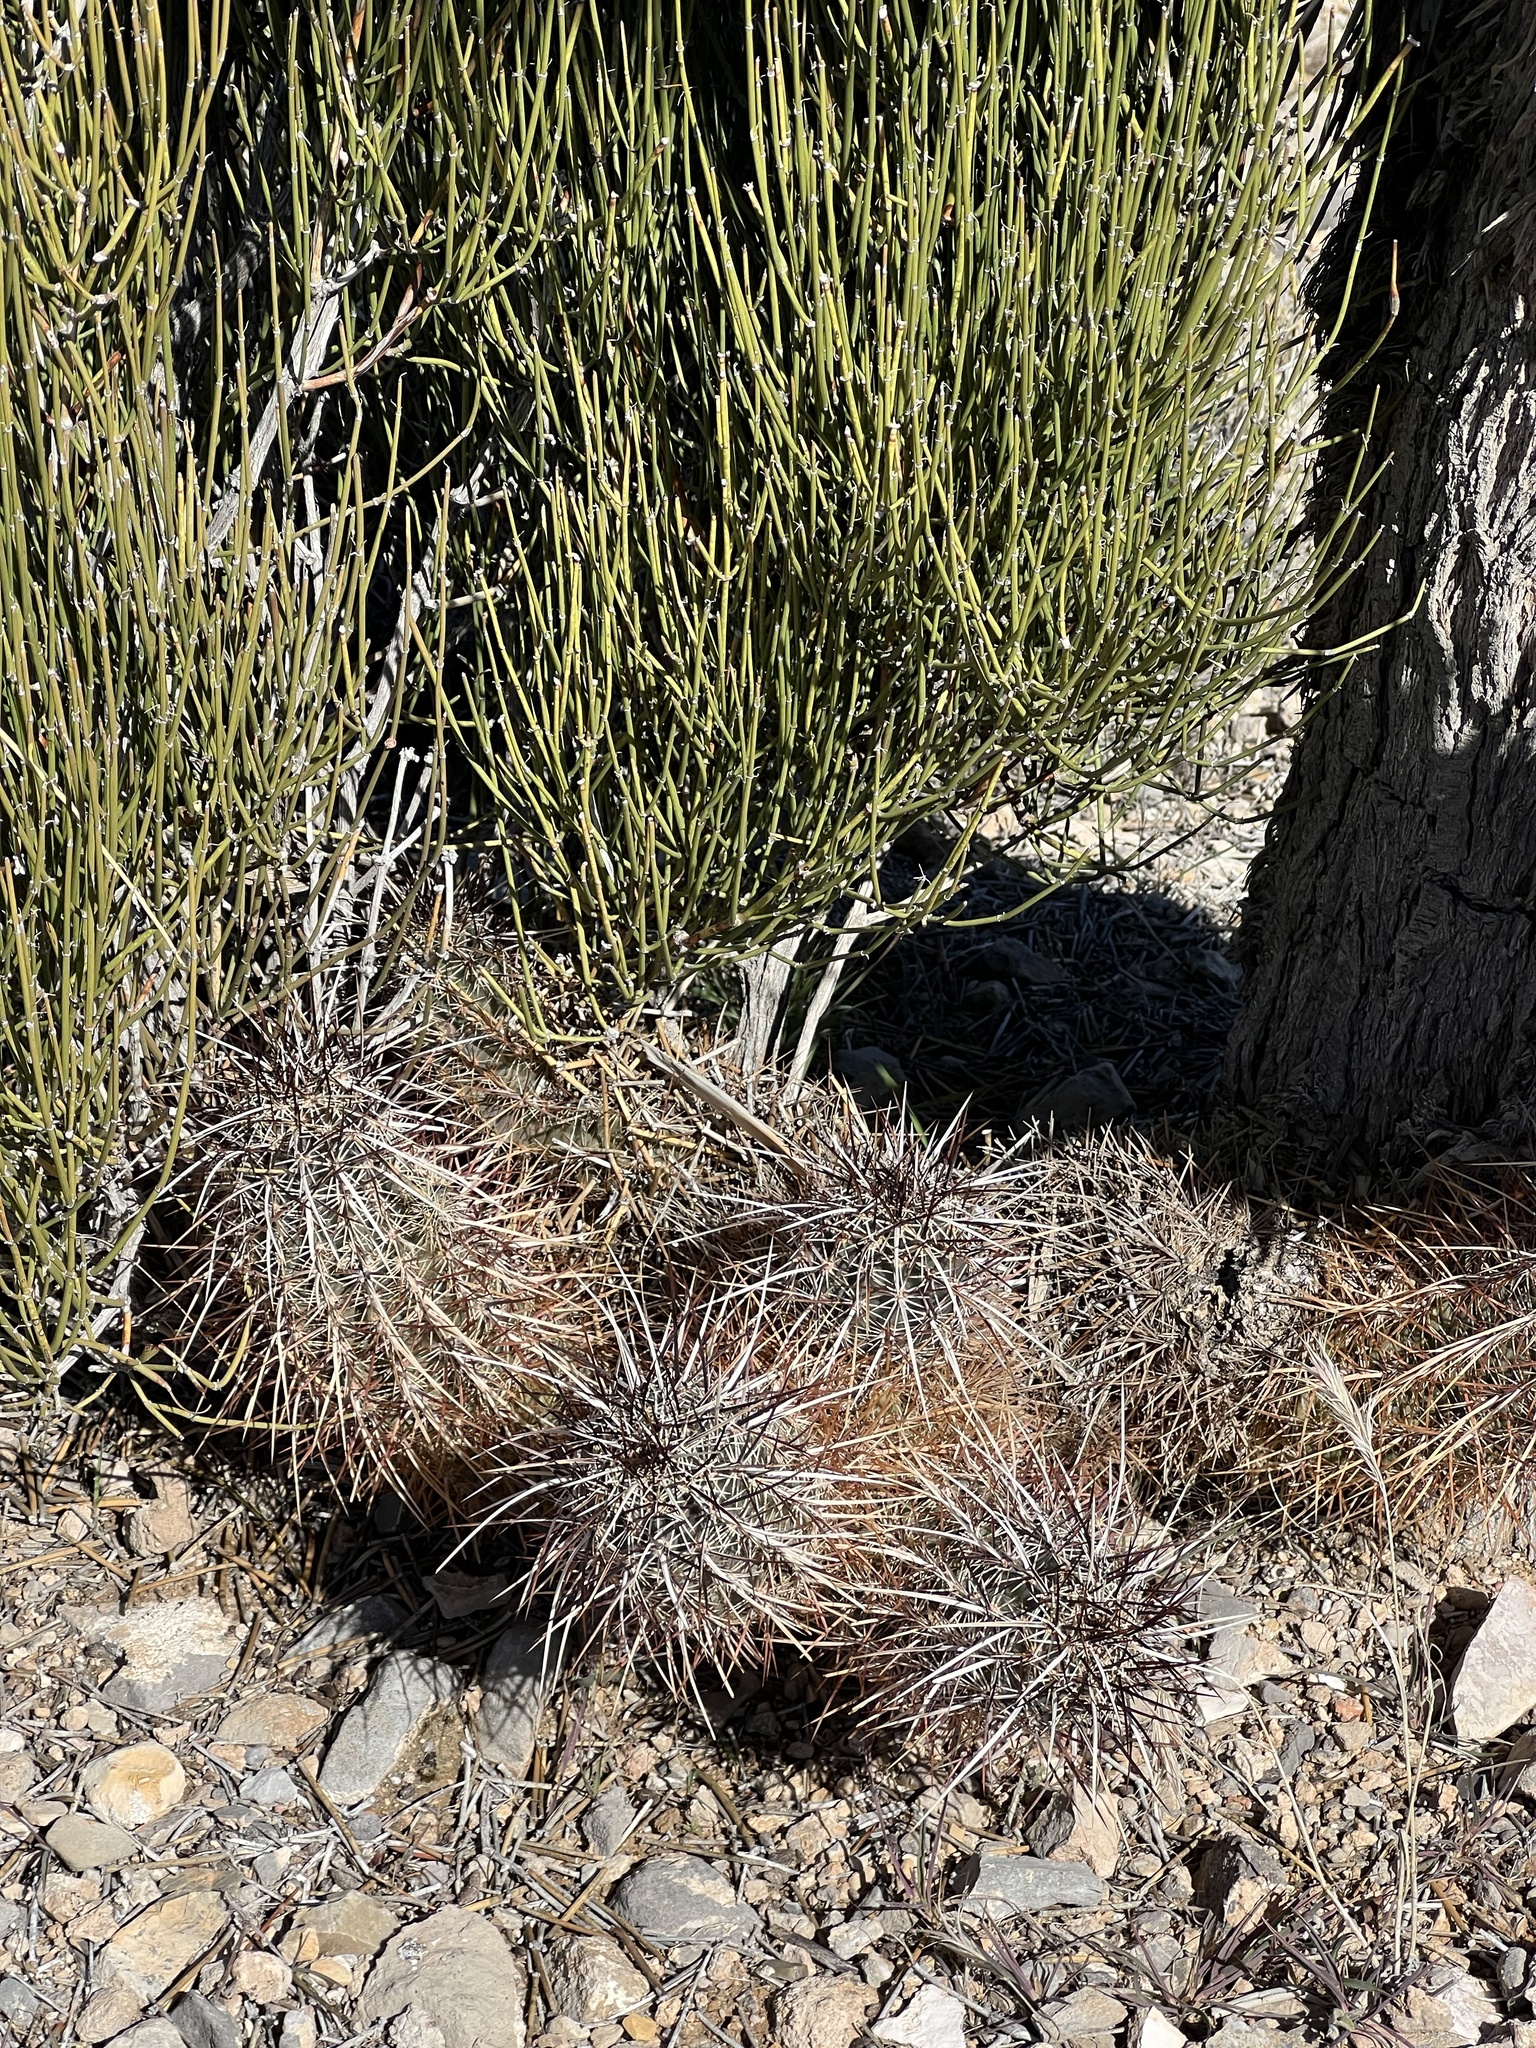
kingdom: Plantae
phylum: Tracheophyta
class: Magnoliopsida
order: Caryophyllales
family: Cactaceae
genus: Echinocereus
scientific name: Echinocereus engelmannii
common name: Engelmann's hedgehog cactus
